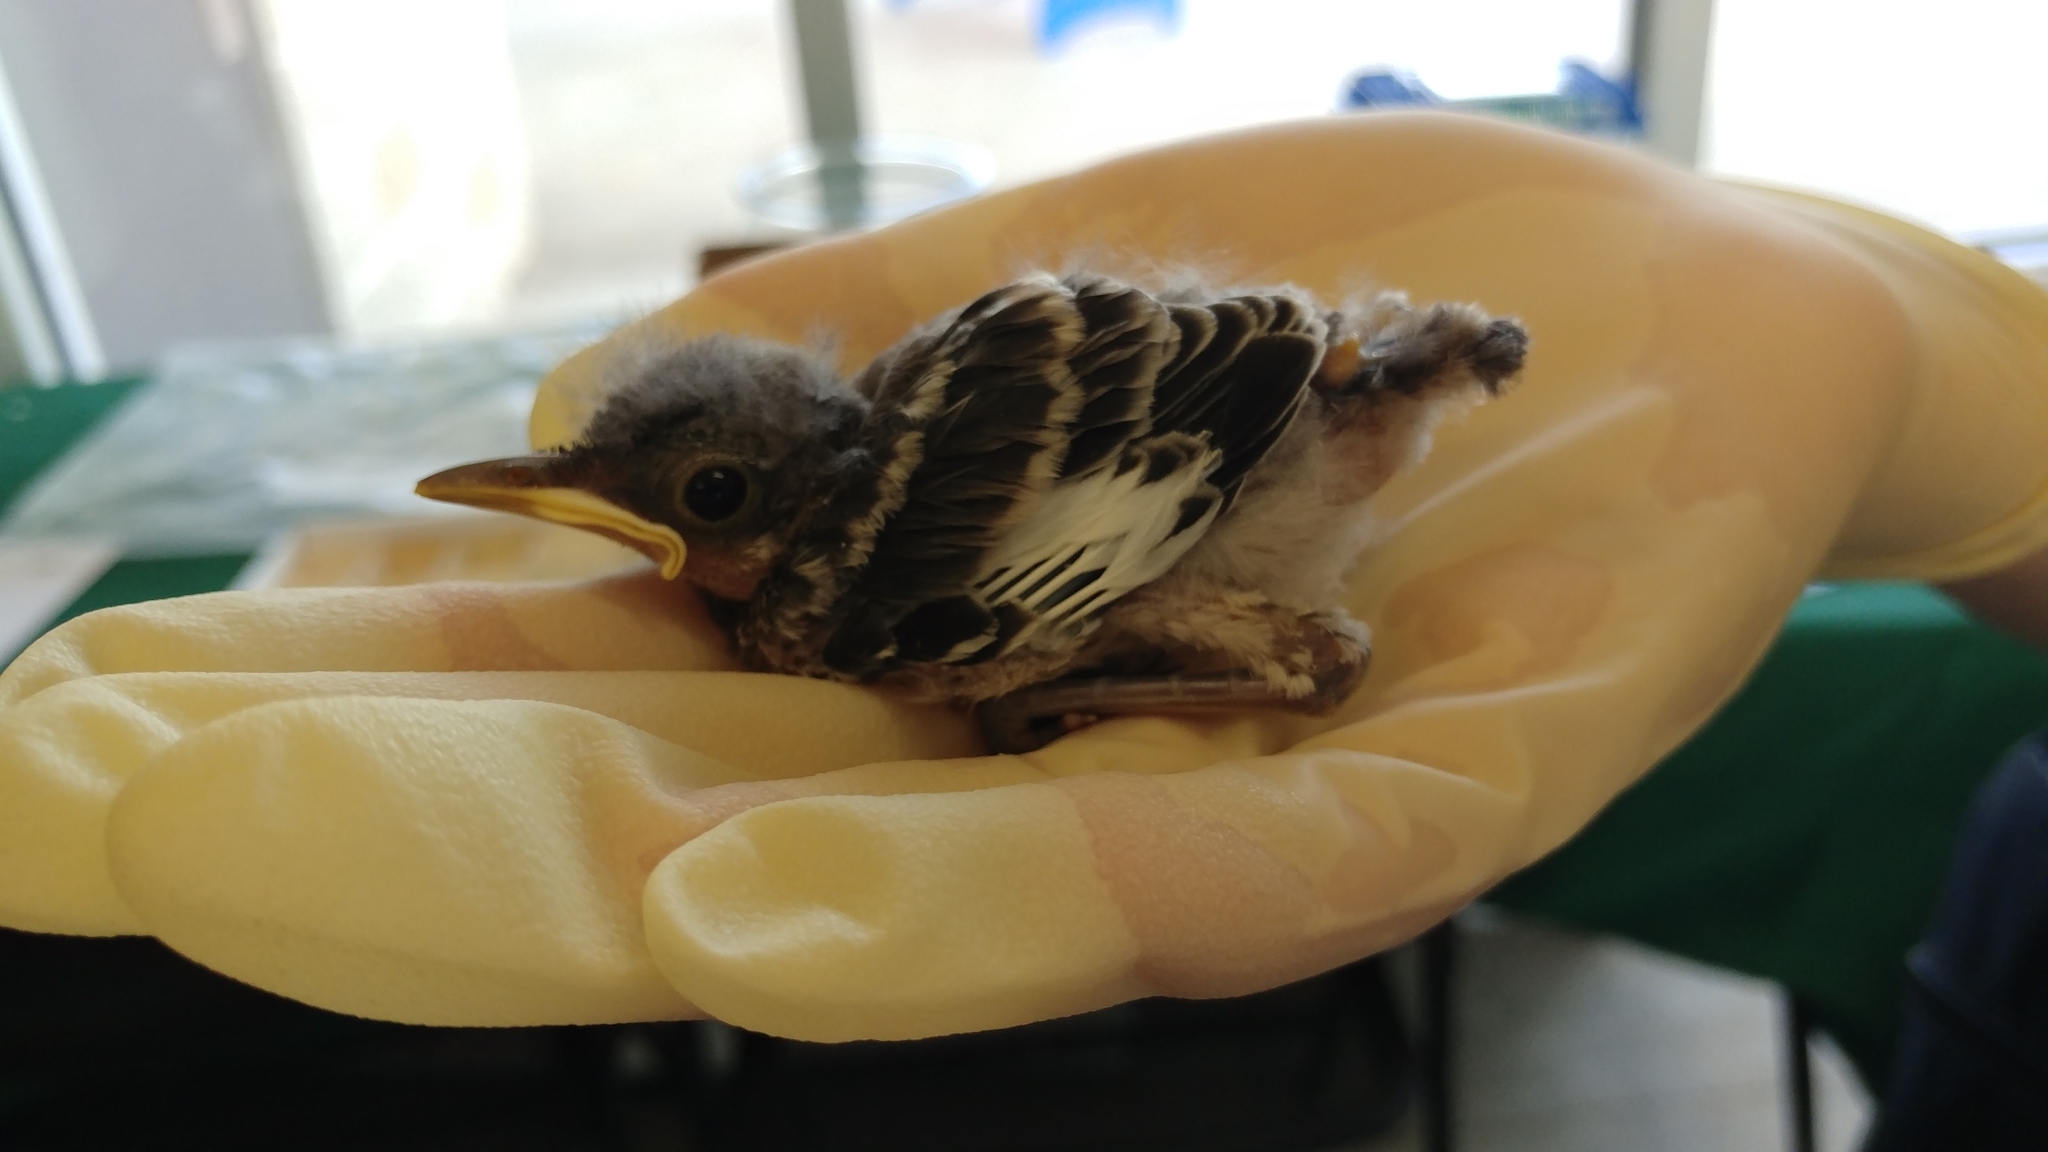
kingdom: Animalia
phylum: Chordata
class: Aves
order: Passeriformes
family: Mimidae
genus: Mimus
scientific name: Mimus polyglottos
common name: Northern mockingbird
